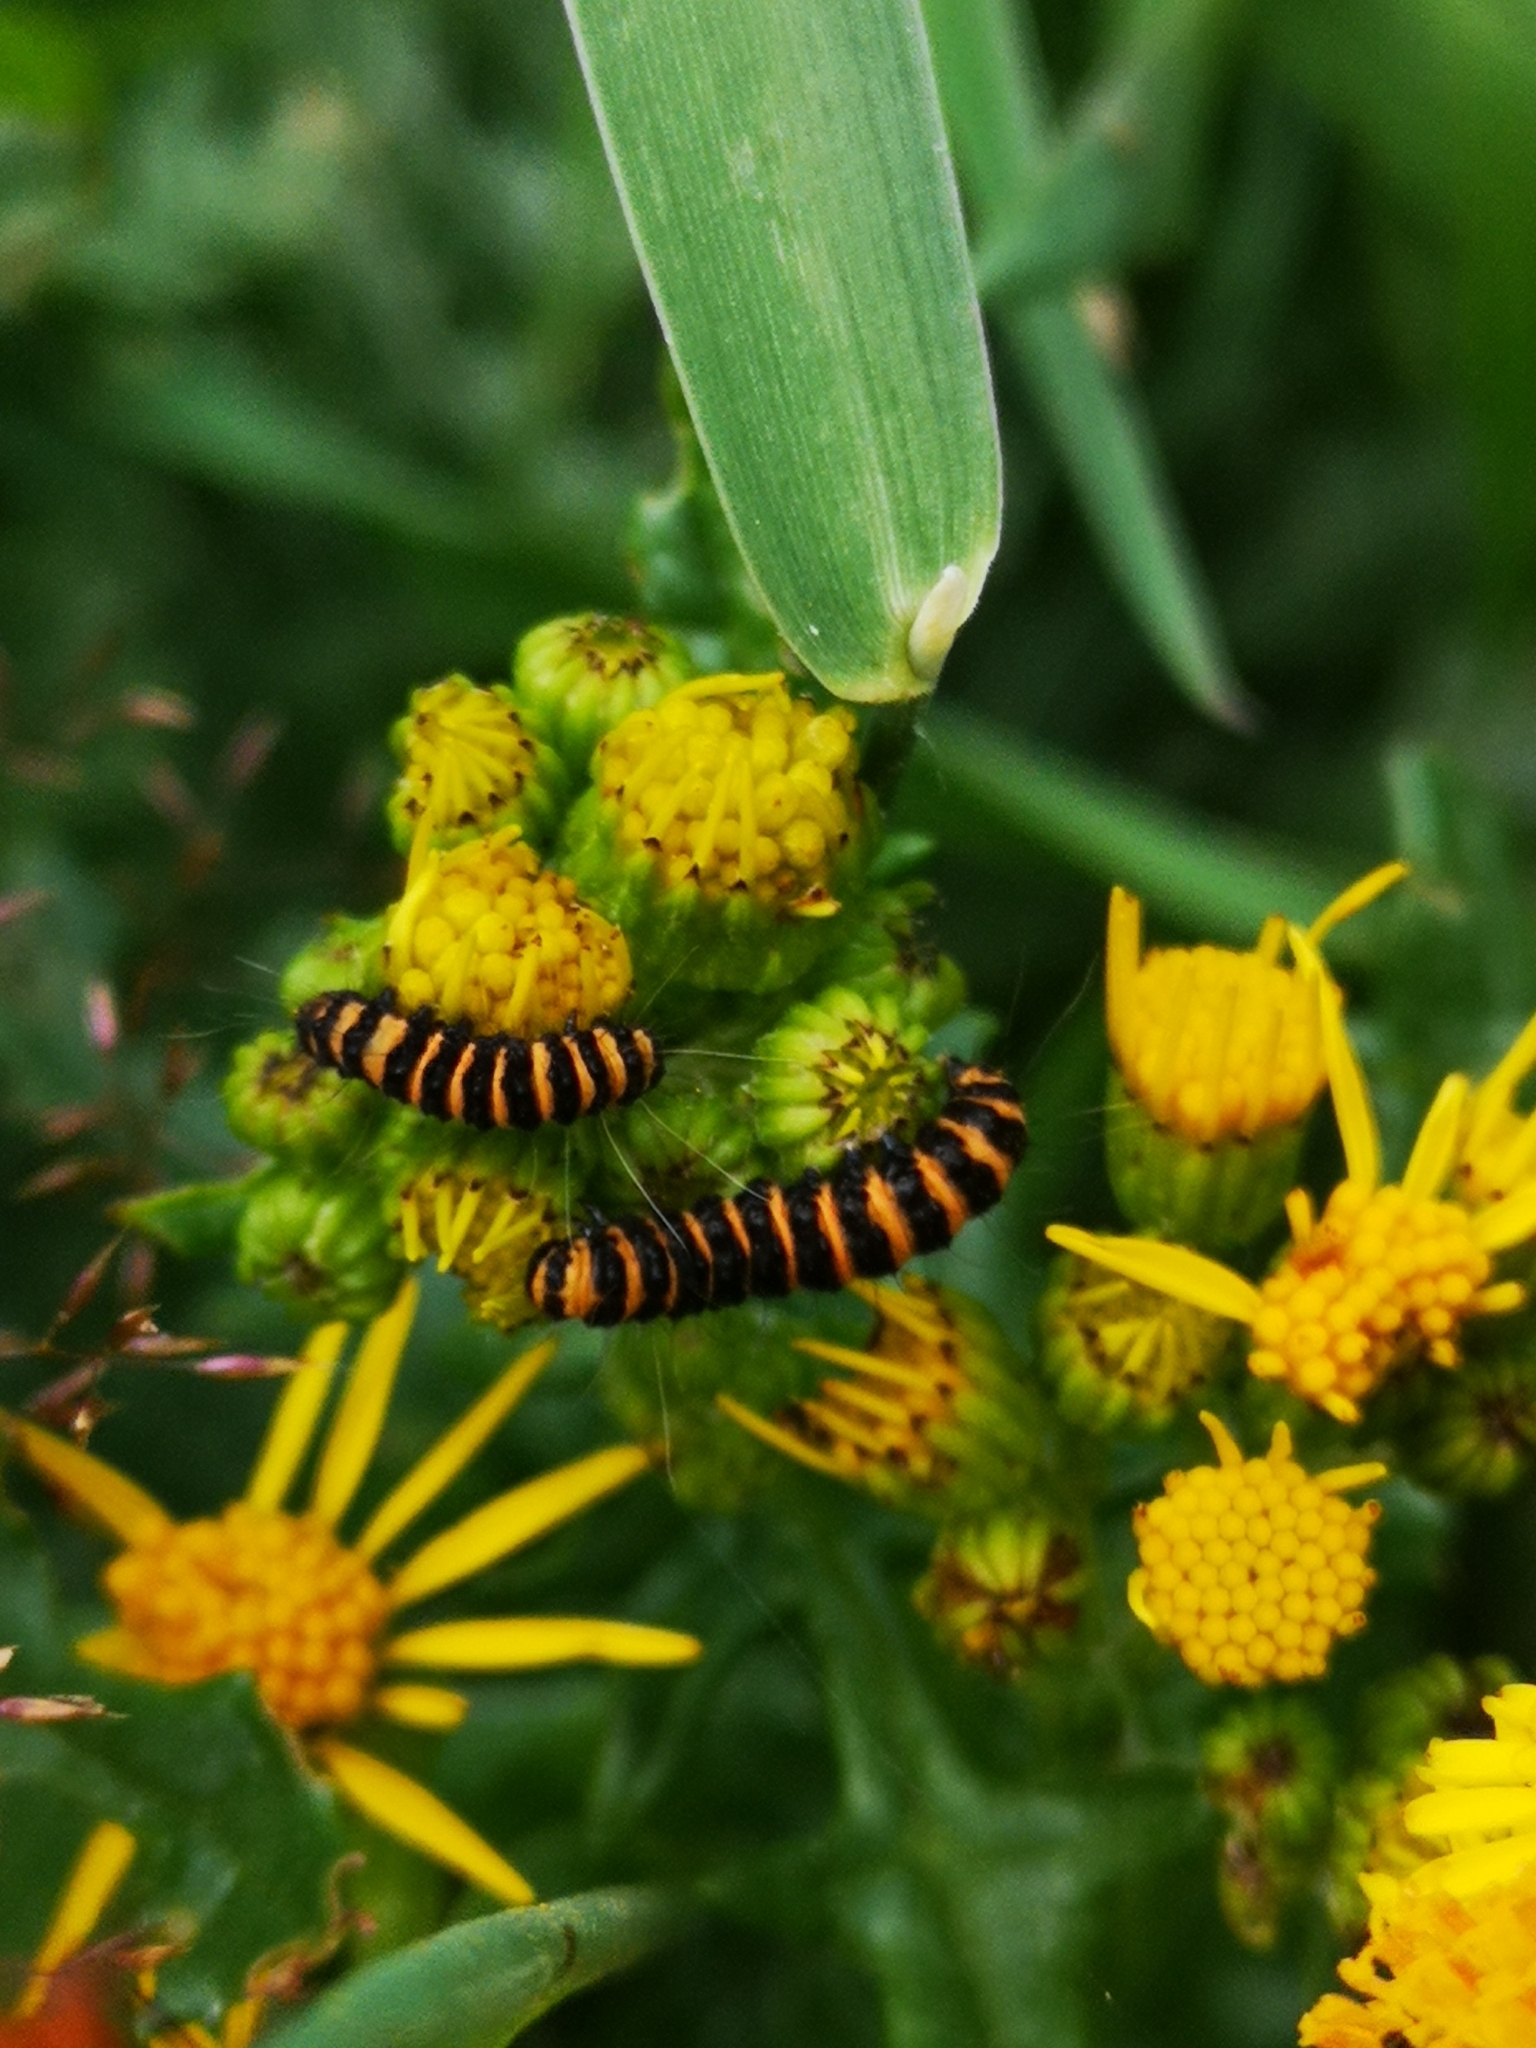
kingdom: Animalia
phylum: Arthropoda
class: Insecta
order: Lepidoptera
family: Erebidae
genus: Tyria
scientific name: Tyria jacobaeae
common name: Cinnabar
